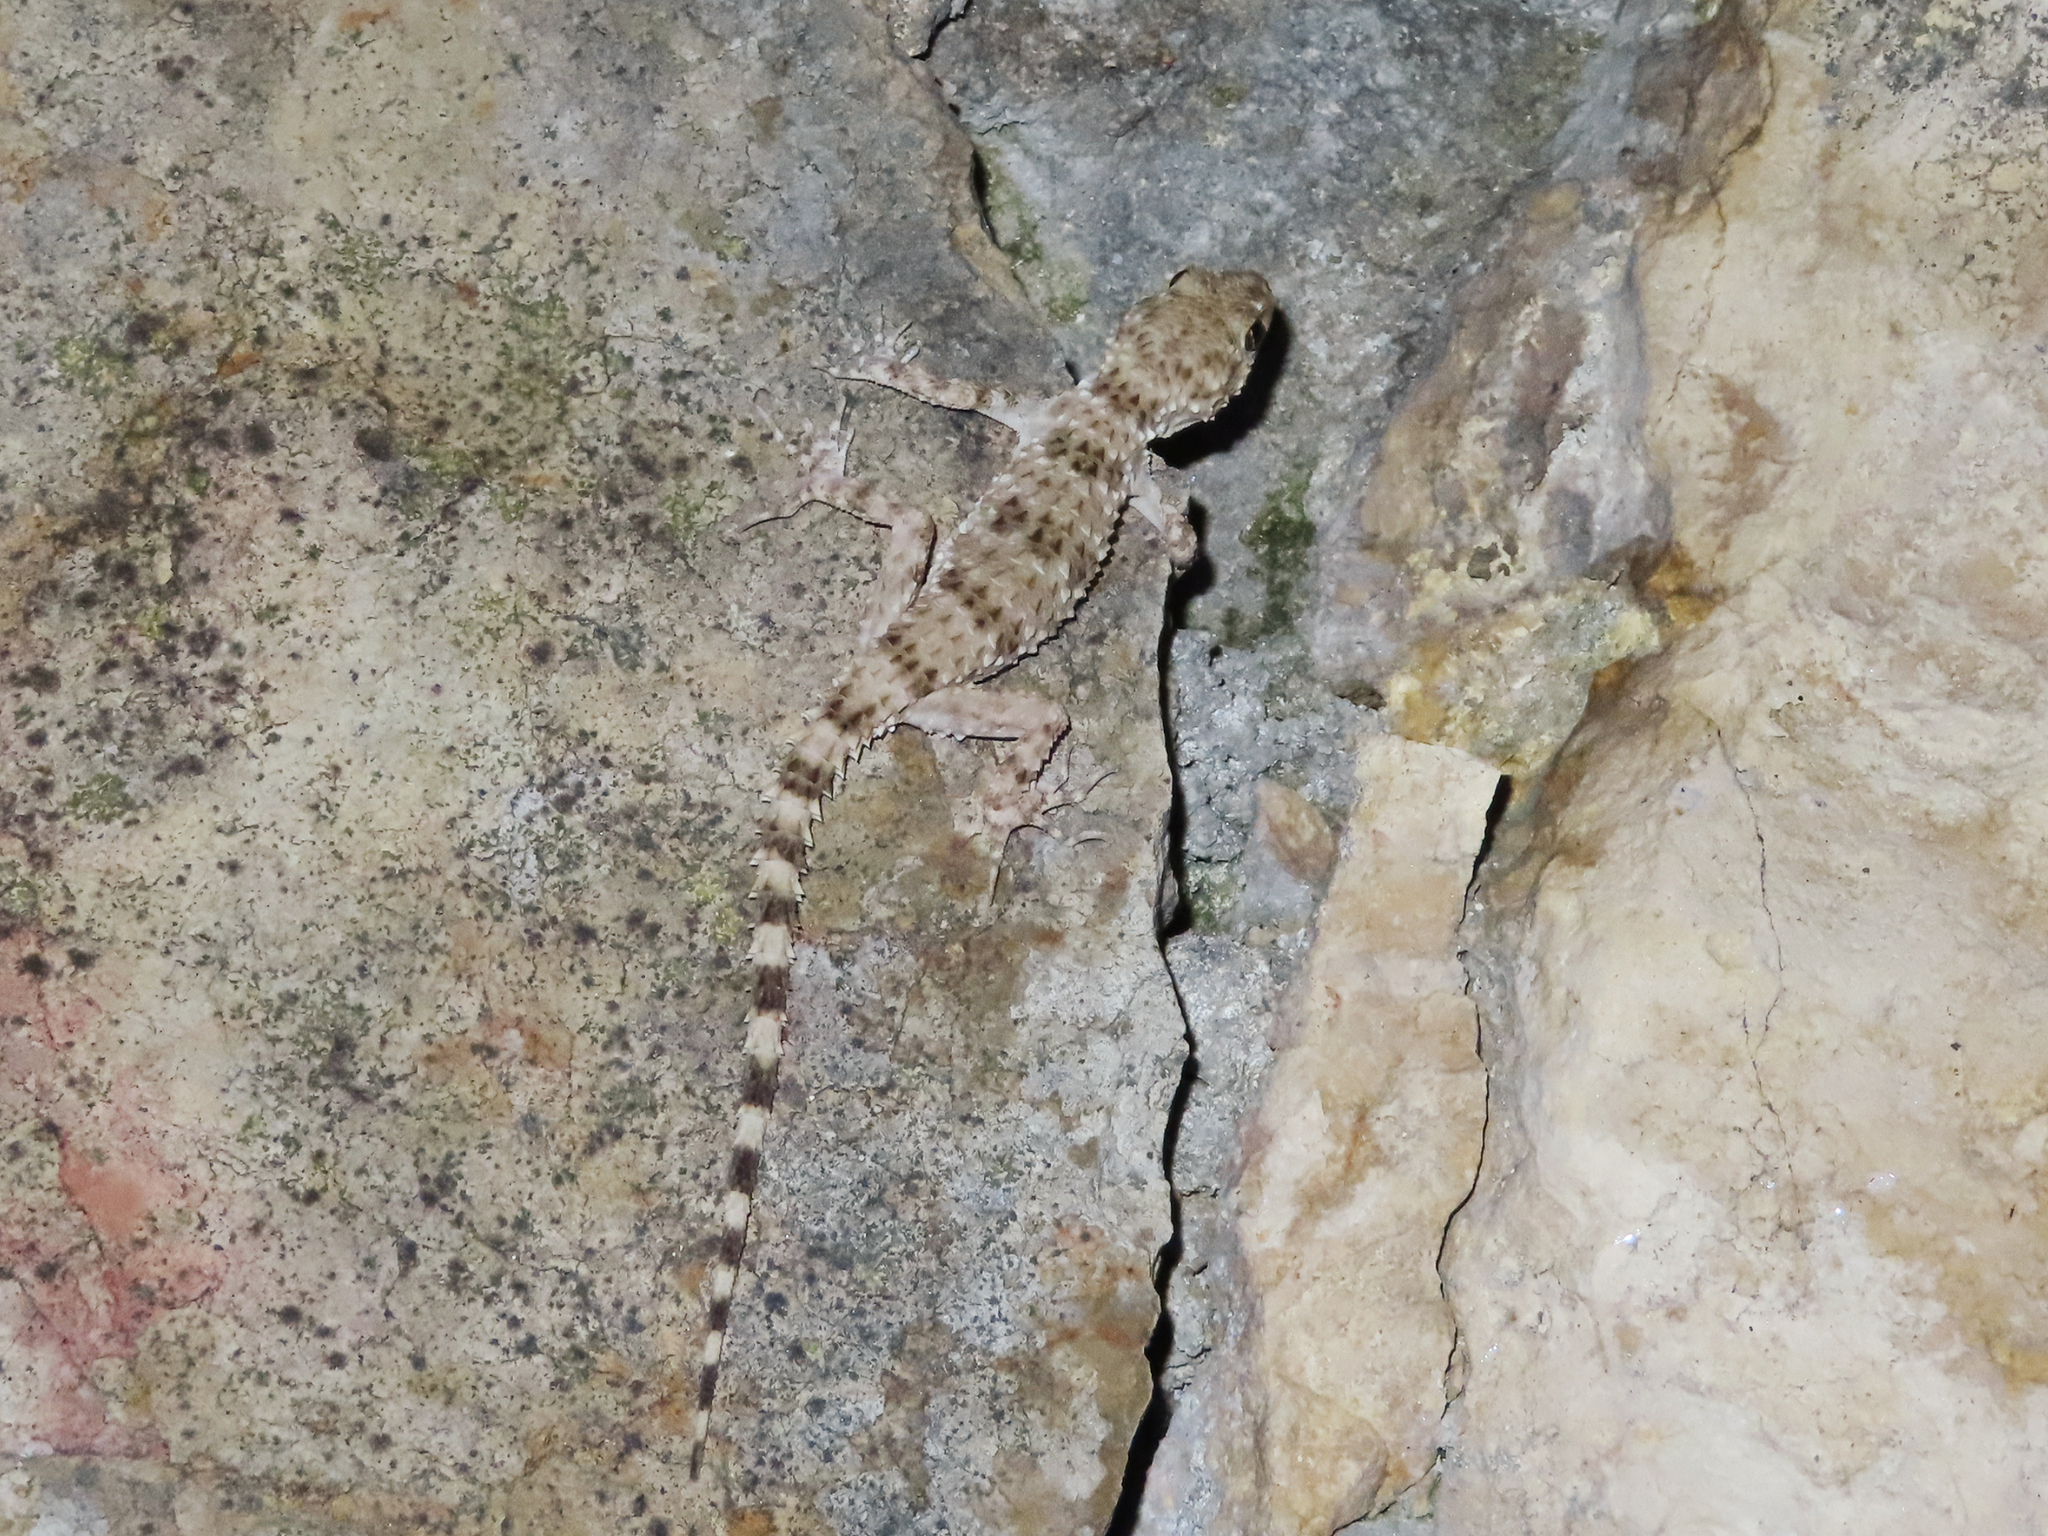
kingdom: Animalia
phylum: Chordata
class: Squamata
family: Gekkonidae
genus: Tenuidactylus
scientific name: Tenuidactylus caspius
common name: Caspian bent-toed gecko
